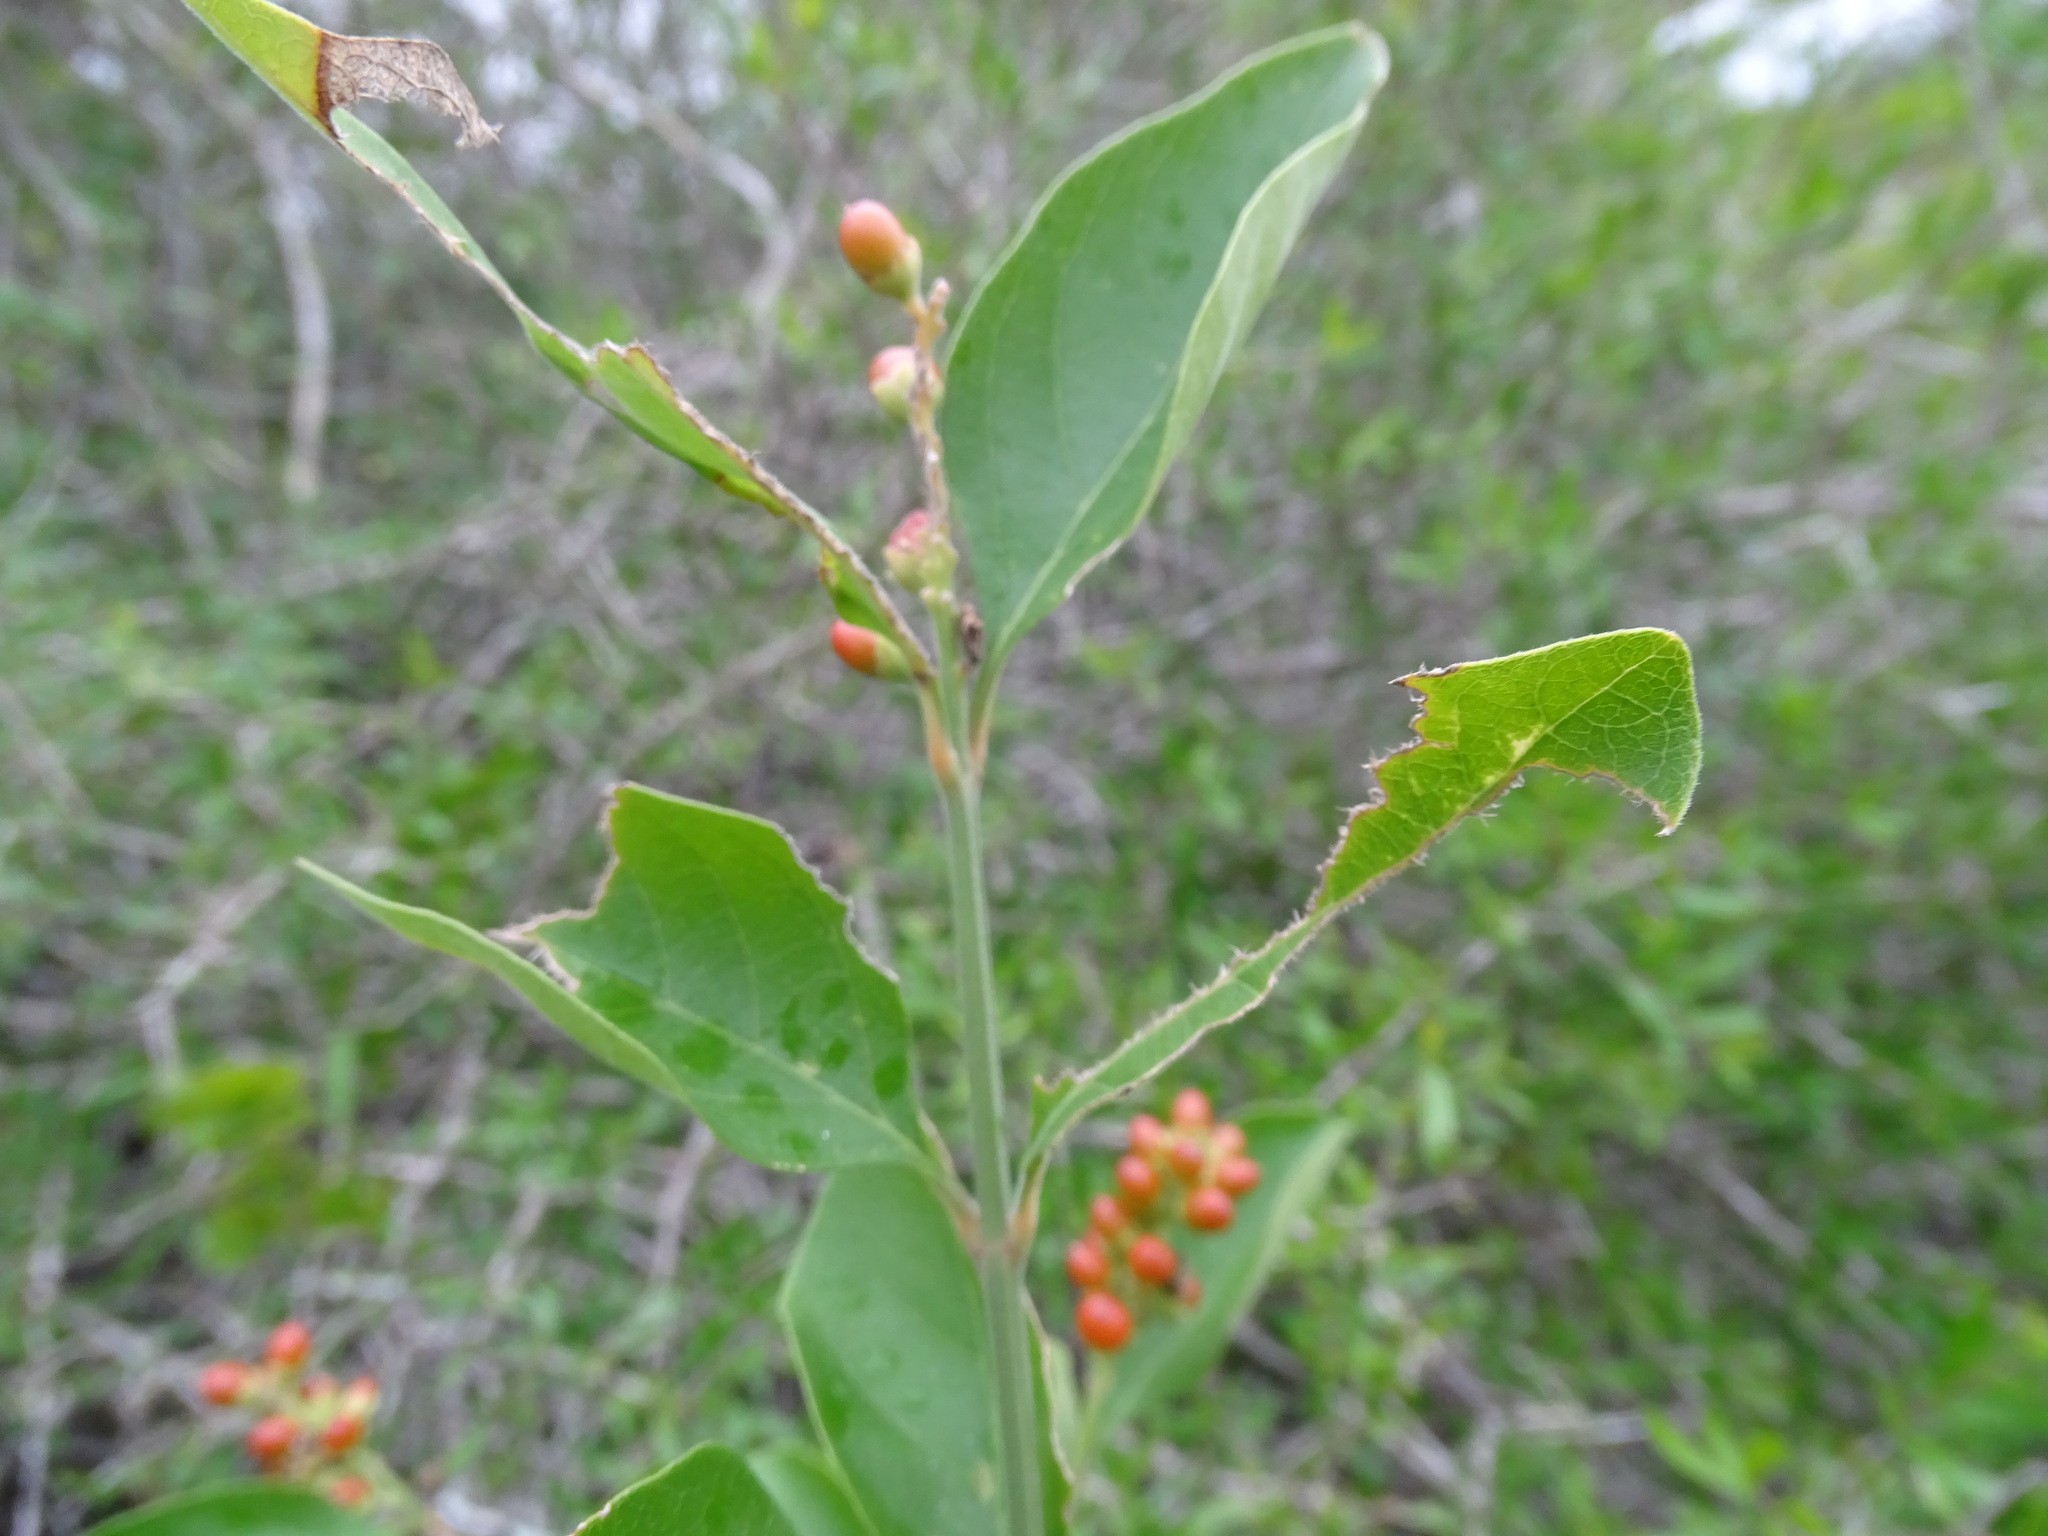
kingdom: Plantae
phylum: Tracheophyta
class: Magnoliopsida
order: Lamiales
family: Verbenaceae
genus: Citharexylum
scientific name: Citharexylum berlandieri
